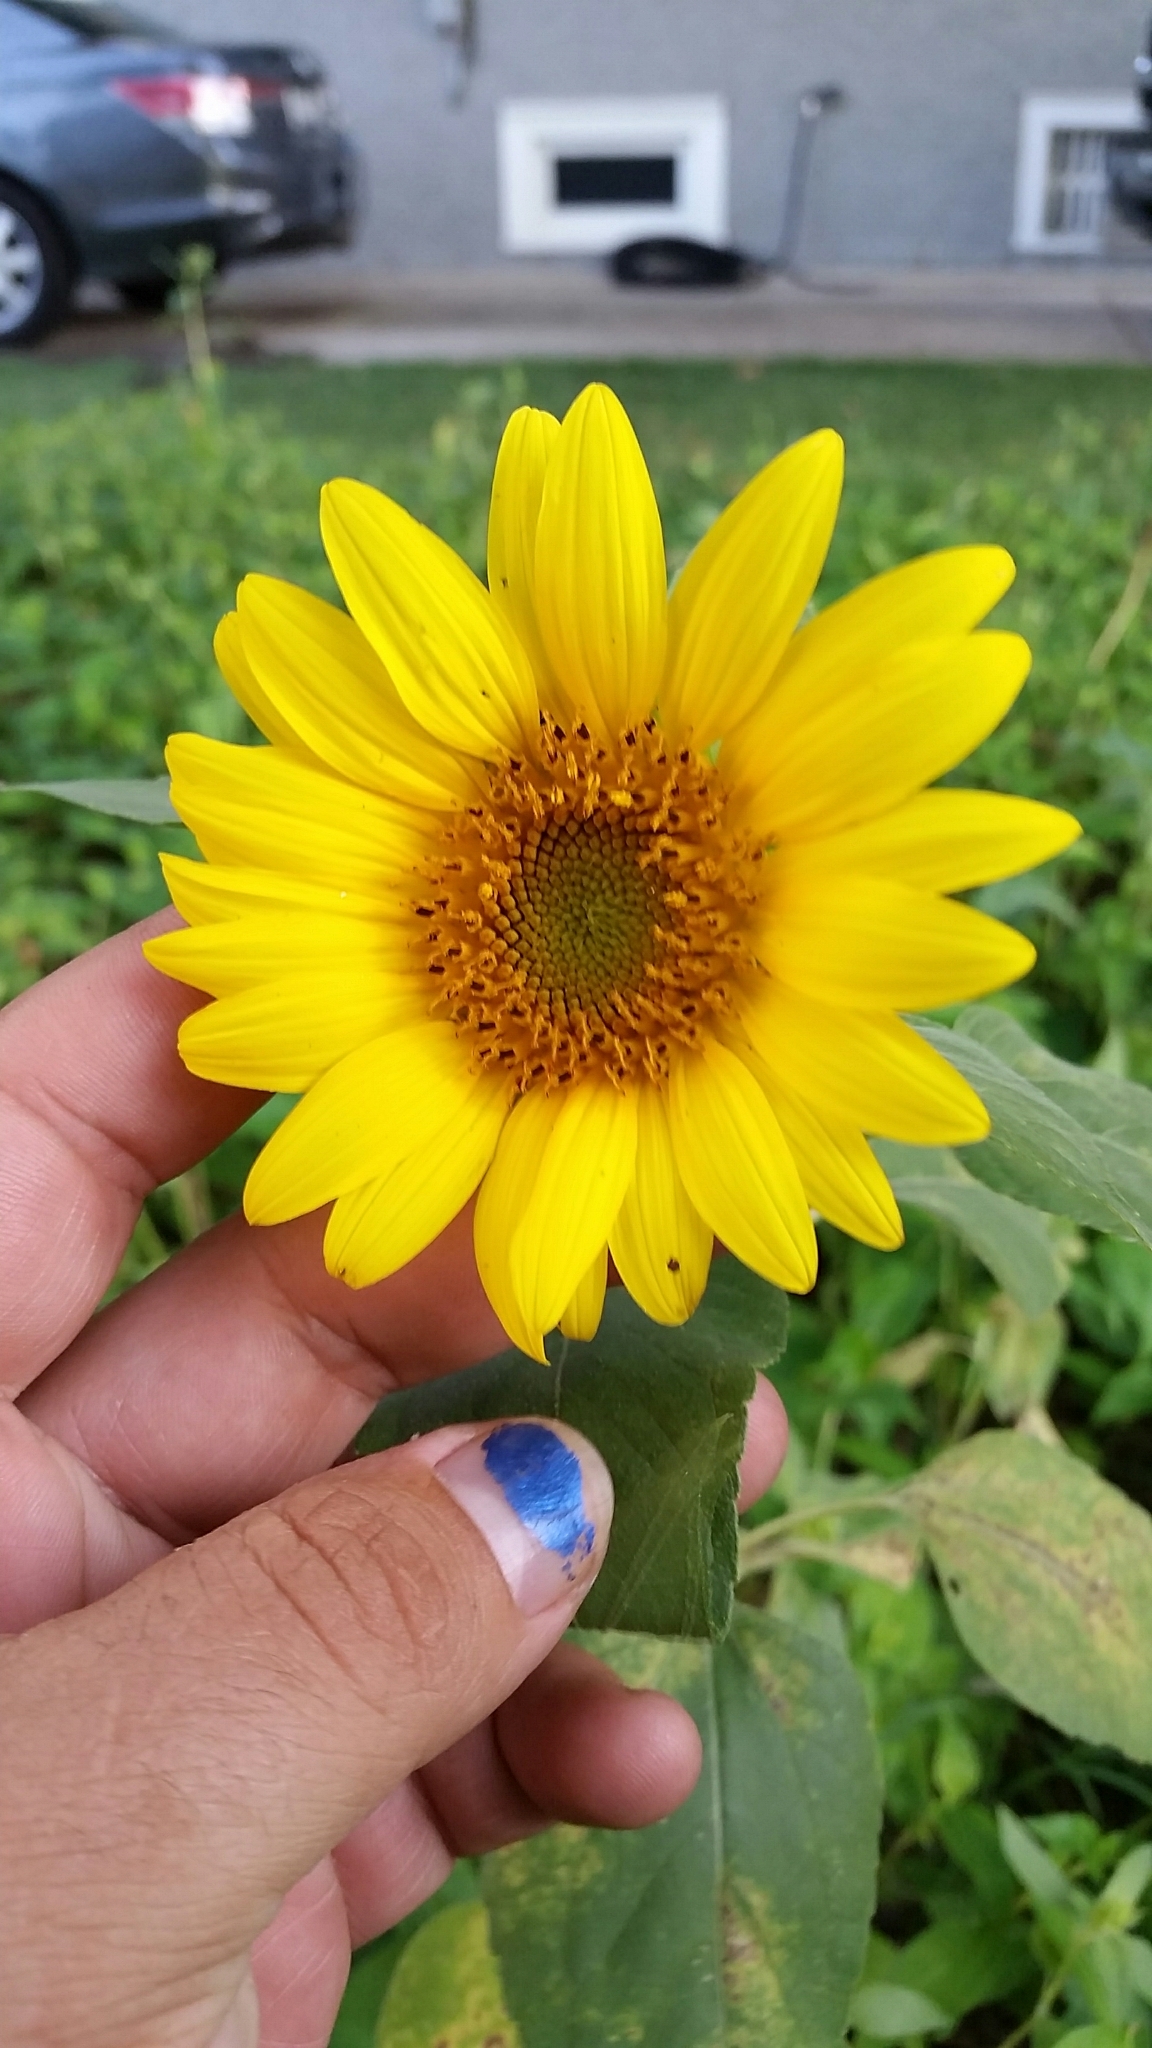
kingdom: Plantae
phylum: Tracheophyta
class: Magnoliopsida
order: Asterales
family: Asteraceae
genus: Helianthus
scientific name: Helianthus annuus
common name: Sunflower
